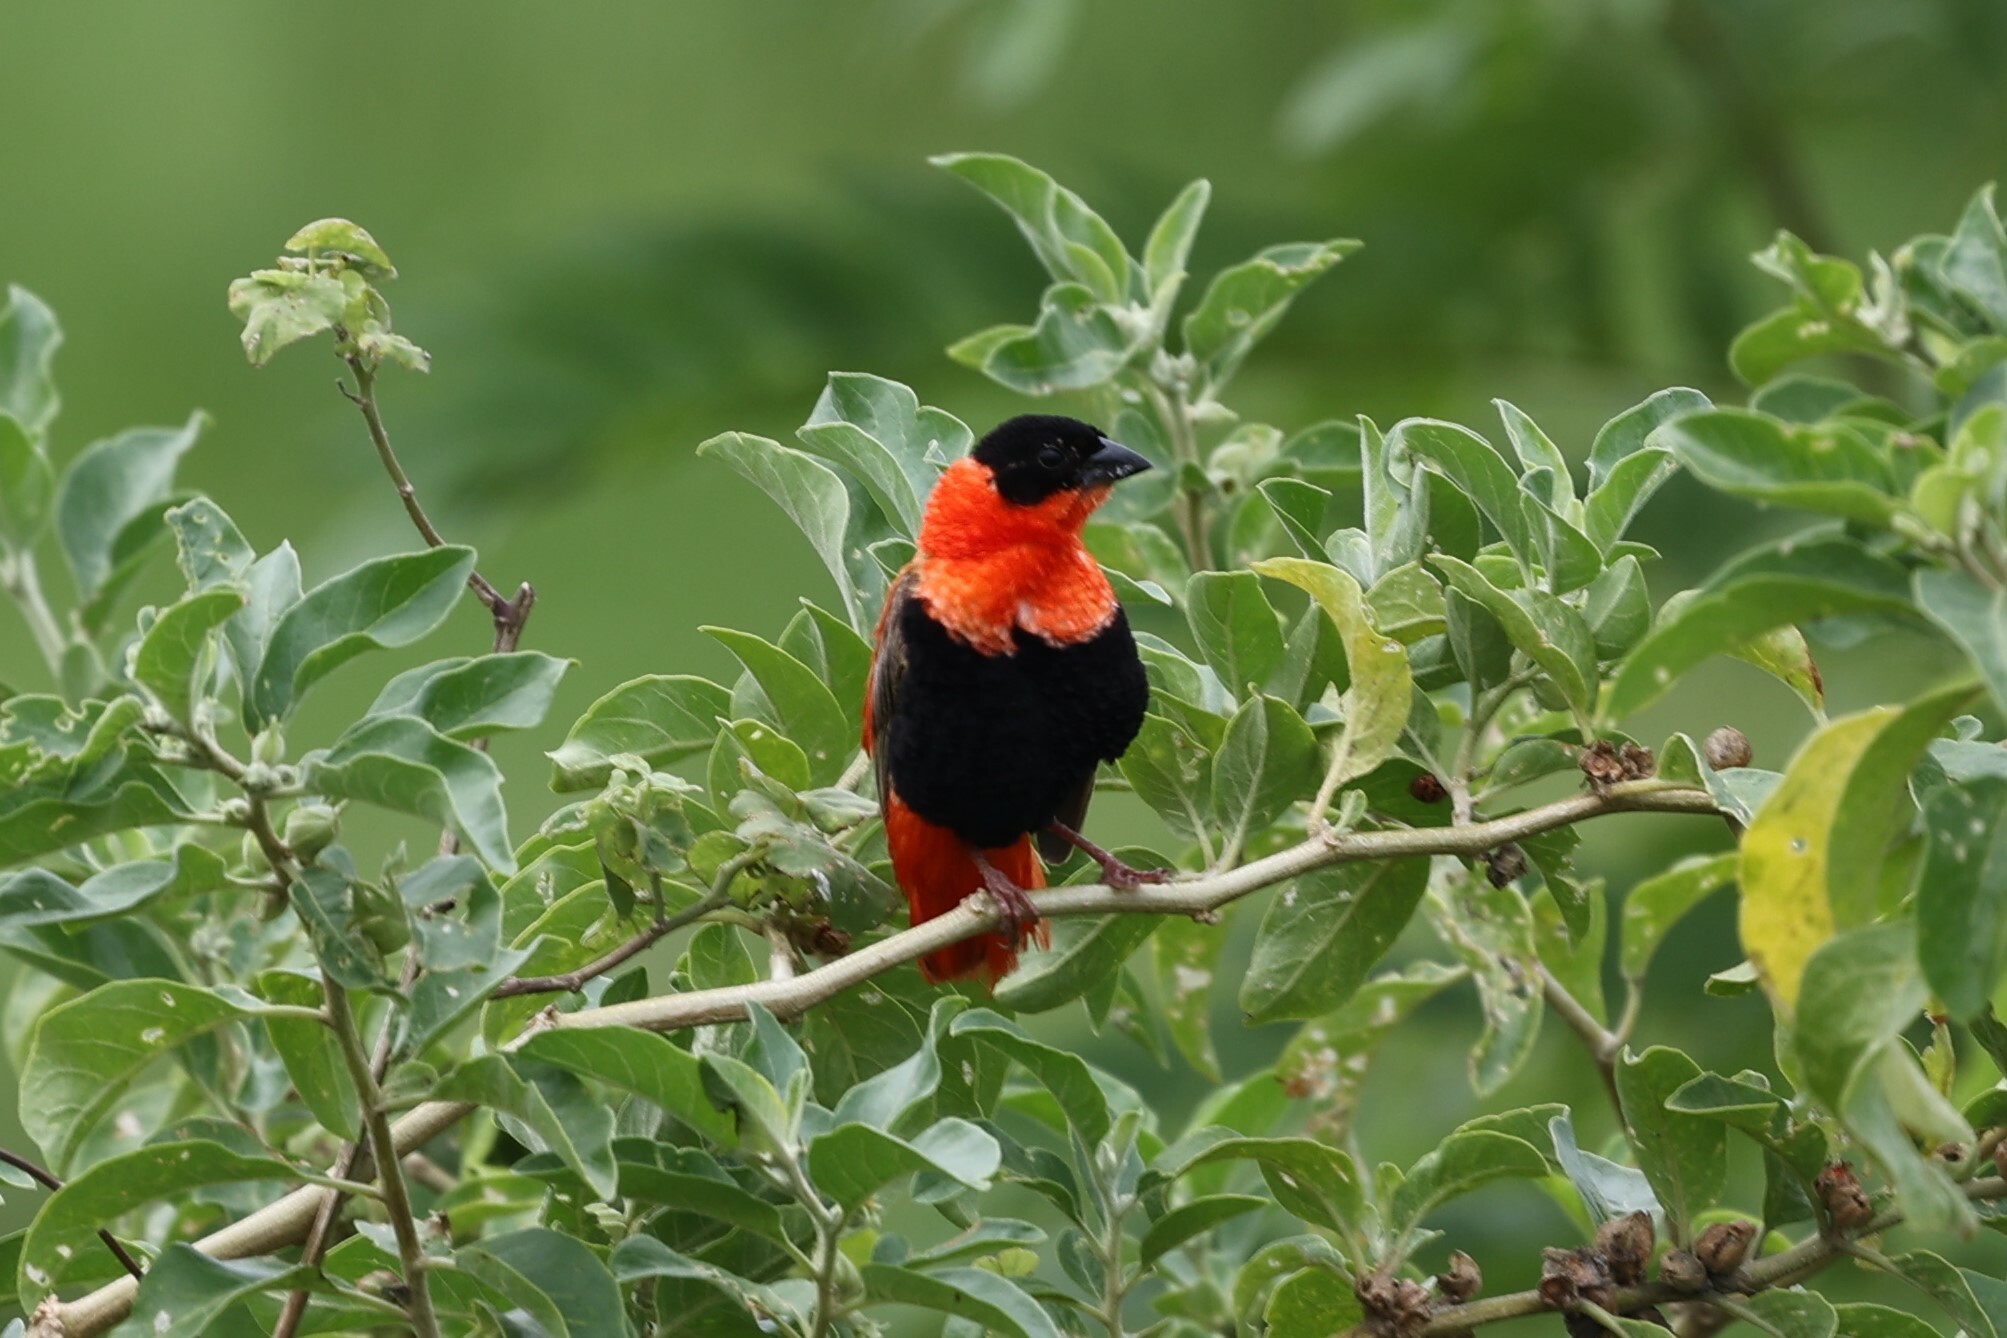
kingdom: Animalia
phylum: Chordata
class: Aves
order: Passeriformes
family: Ploceidae
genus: Euplectes
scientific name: Euplectes franciscanus
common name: Northern red bishop
